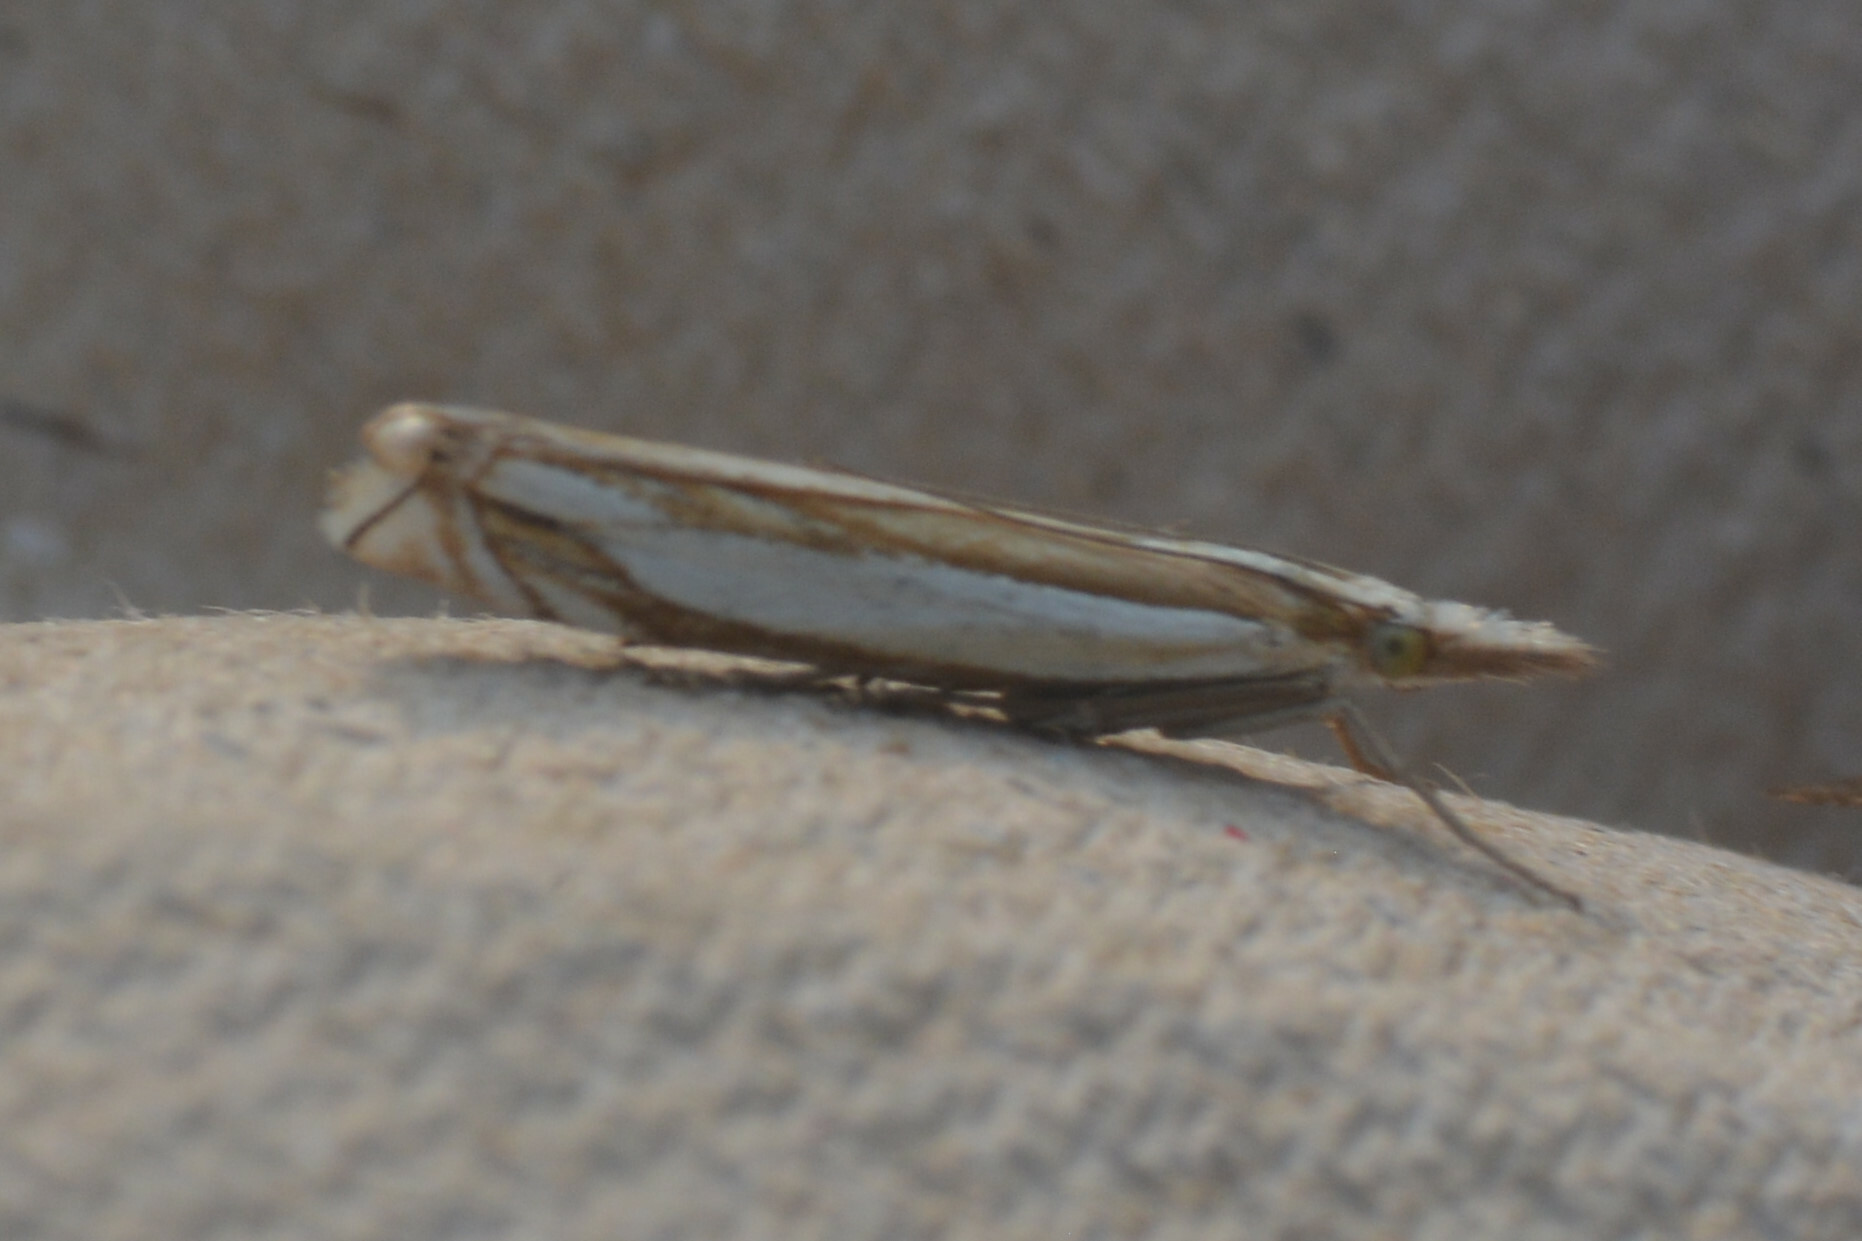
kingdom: Animalia
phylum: Arthropoda
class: Insecta
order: Lepidoptera
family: Crambidae
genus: Crambus
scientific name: Crambus pascuella
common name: Inlaid grass-veneer
